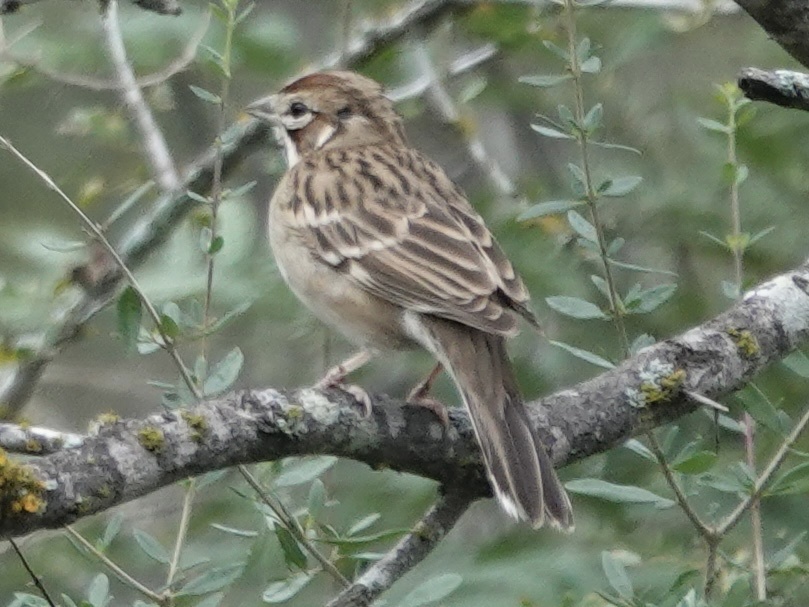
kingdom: Animalia
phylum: Chordata
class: Aves
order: Passeriformes
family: Passerellidae
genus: Chondestes
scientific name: Chondestes grammacus
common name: Lark sparrow
